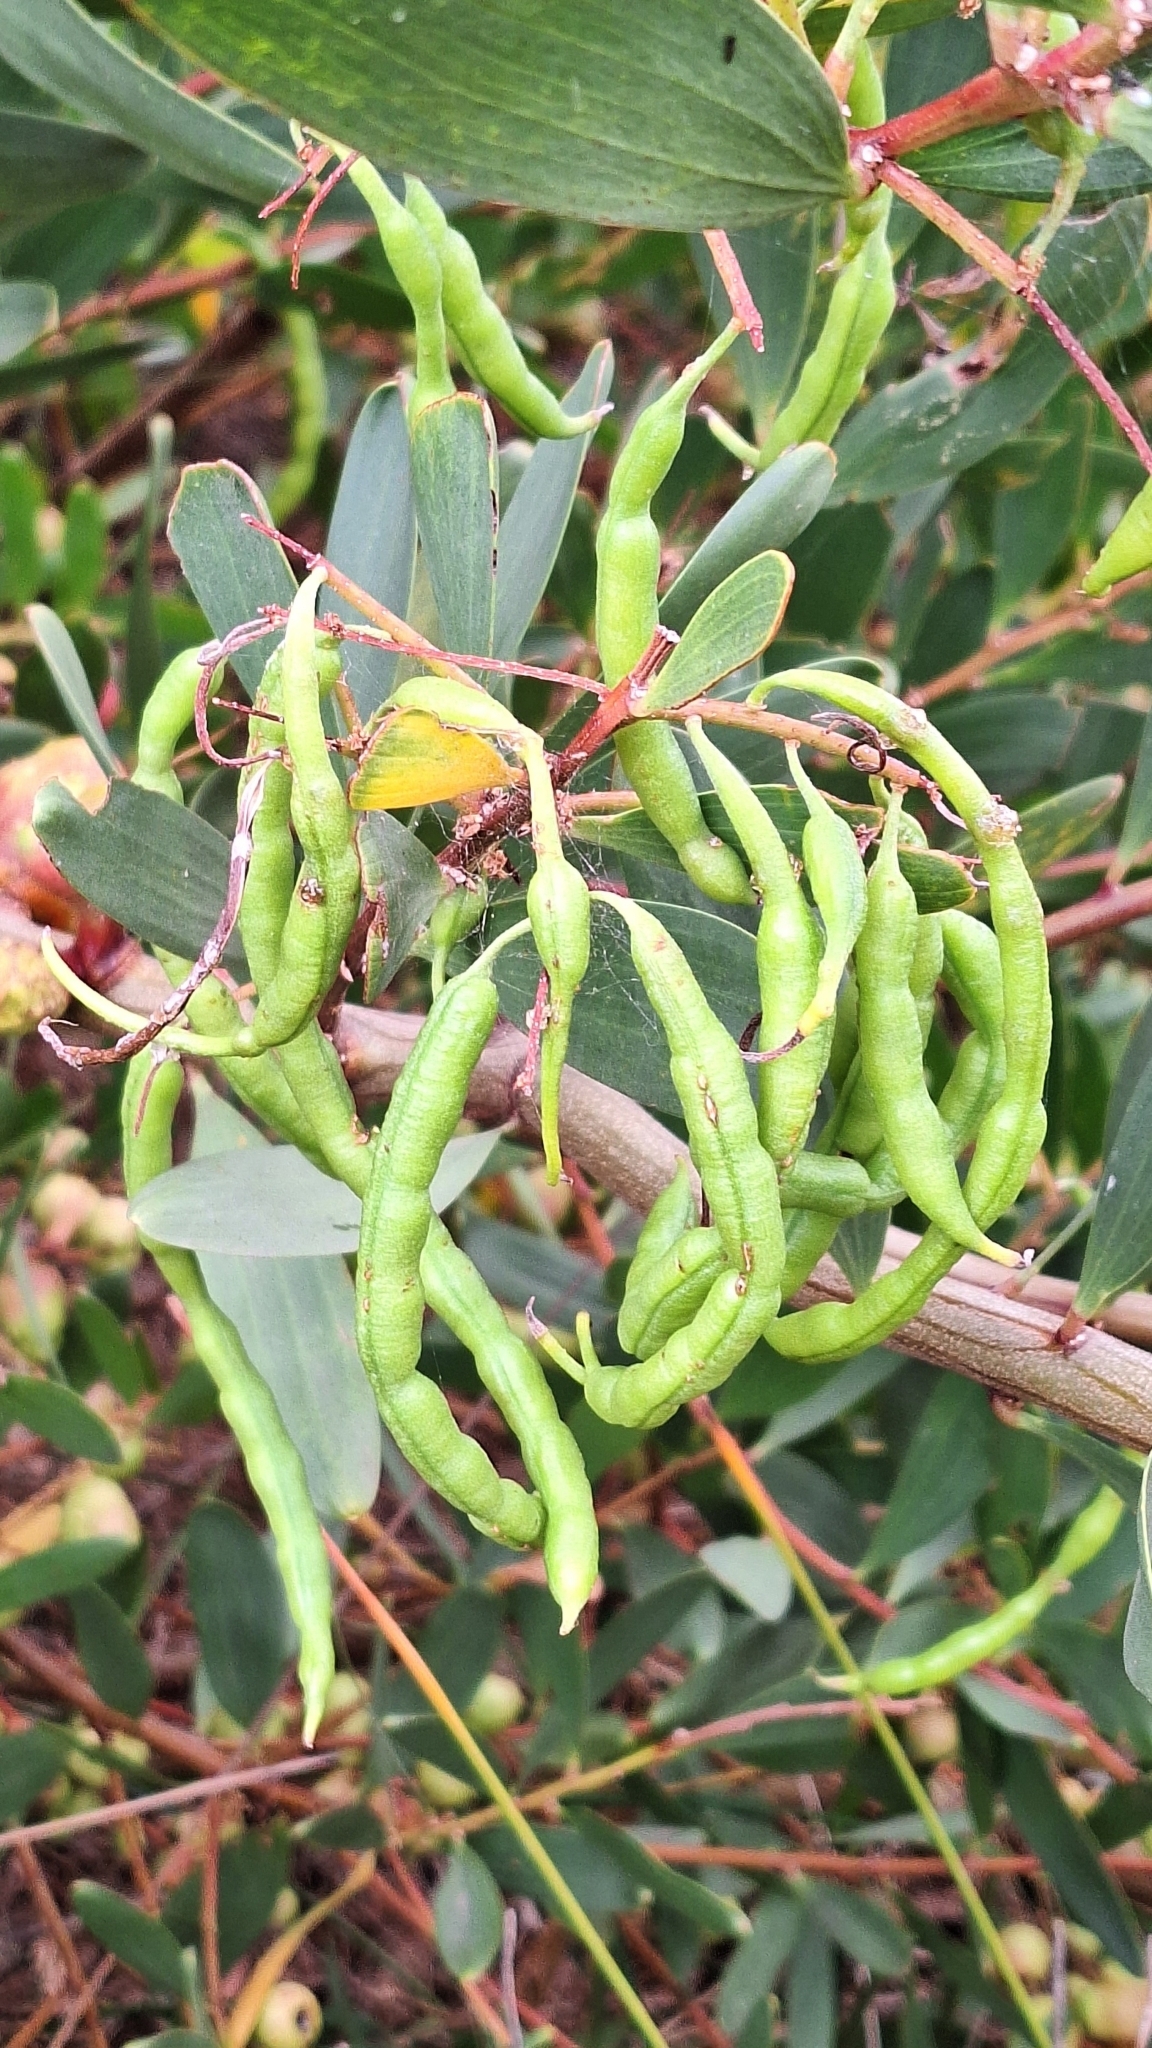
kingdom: Plantae
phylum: Tracheophyta
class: Magnoliopsida
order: Fabales
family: Fabaceae
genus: Acacia
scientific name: Acacia longifolia
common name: Sydney golden wattle
